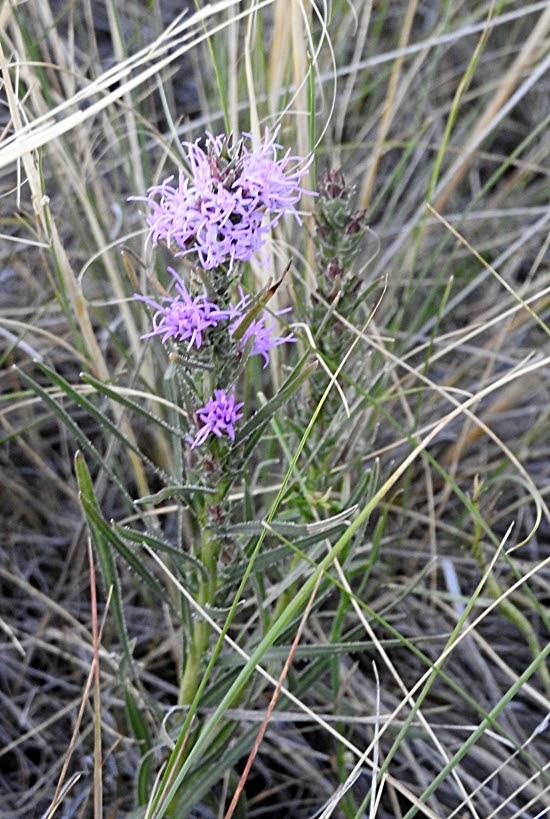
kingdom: Plantae
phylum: Tracheophyta
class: Magnoliopsida
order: Asterales
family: Asteraceae
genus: Liatris
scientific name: Liatris punctata
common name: Dotted gayfeather
